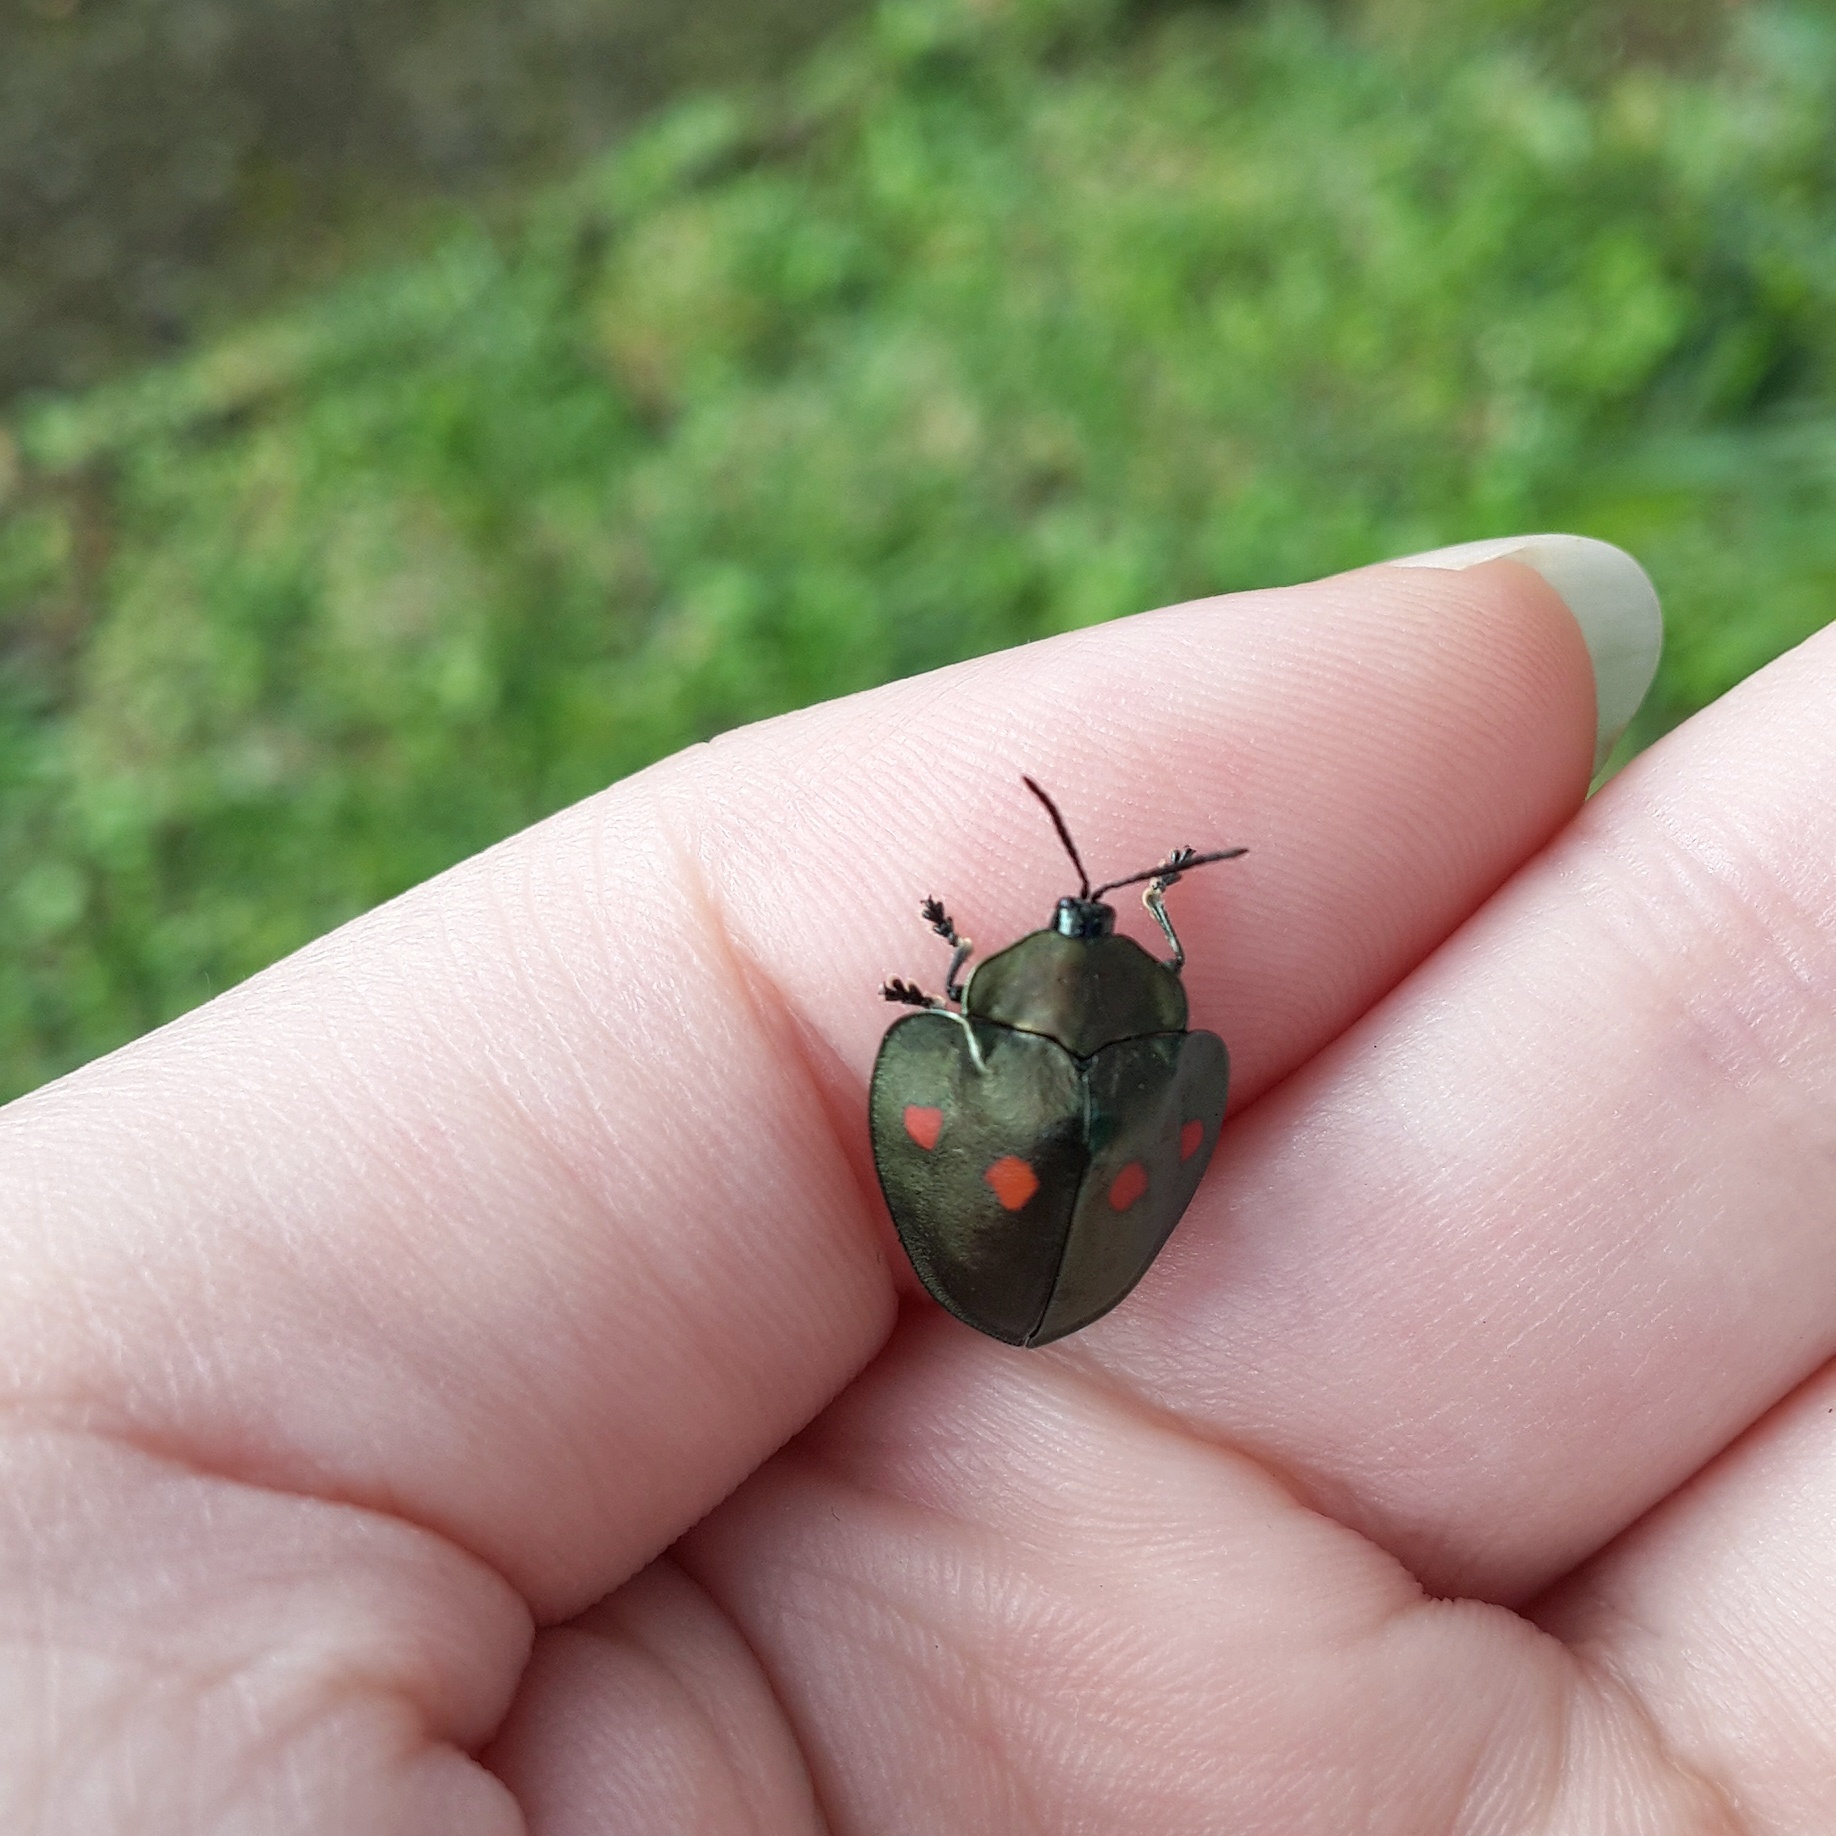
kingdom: Animalia
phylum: Arthropoda
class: Insecta
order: Coleoptera
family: Chrysomelidae
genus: Stolas
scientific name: Stolas lebasii
